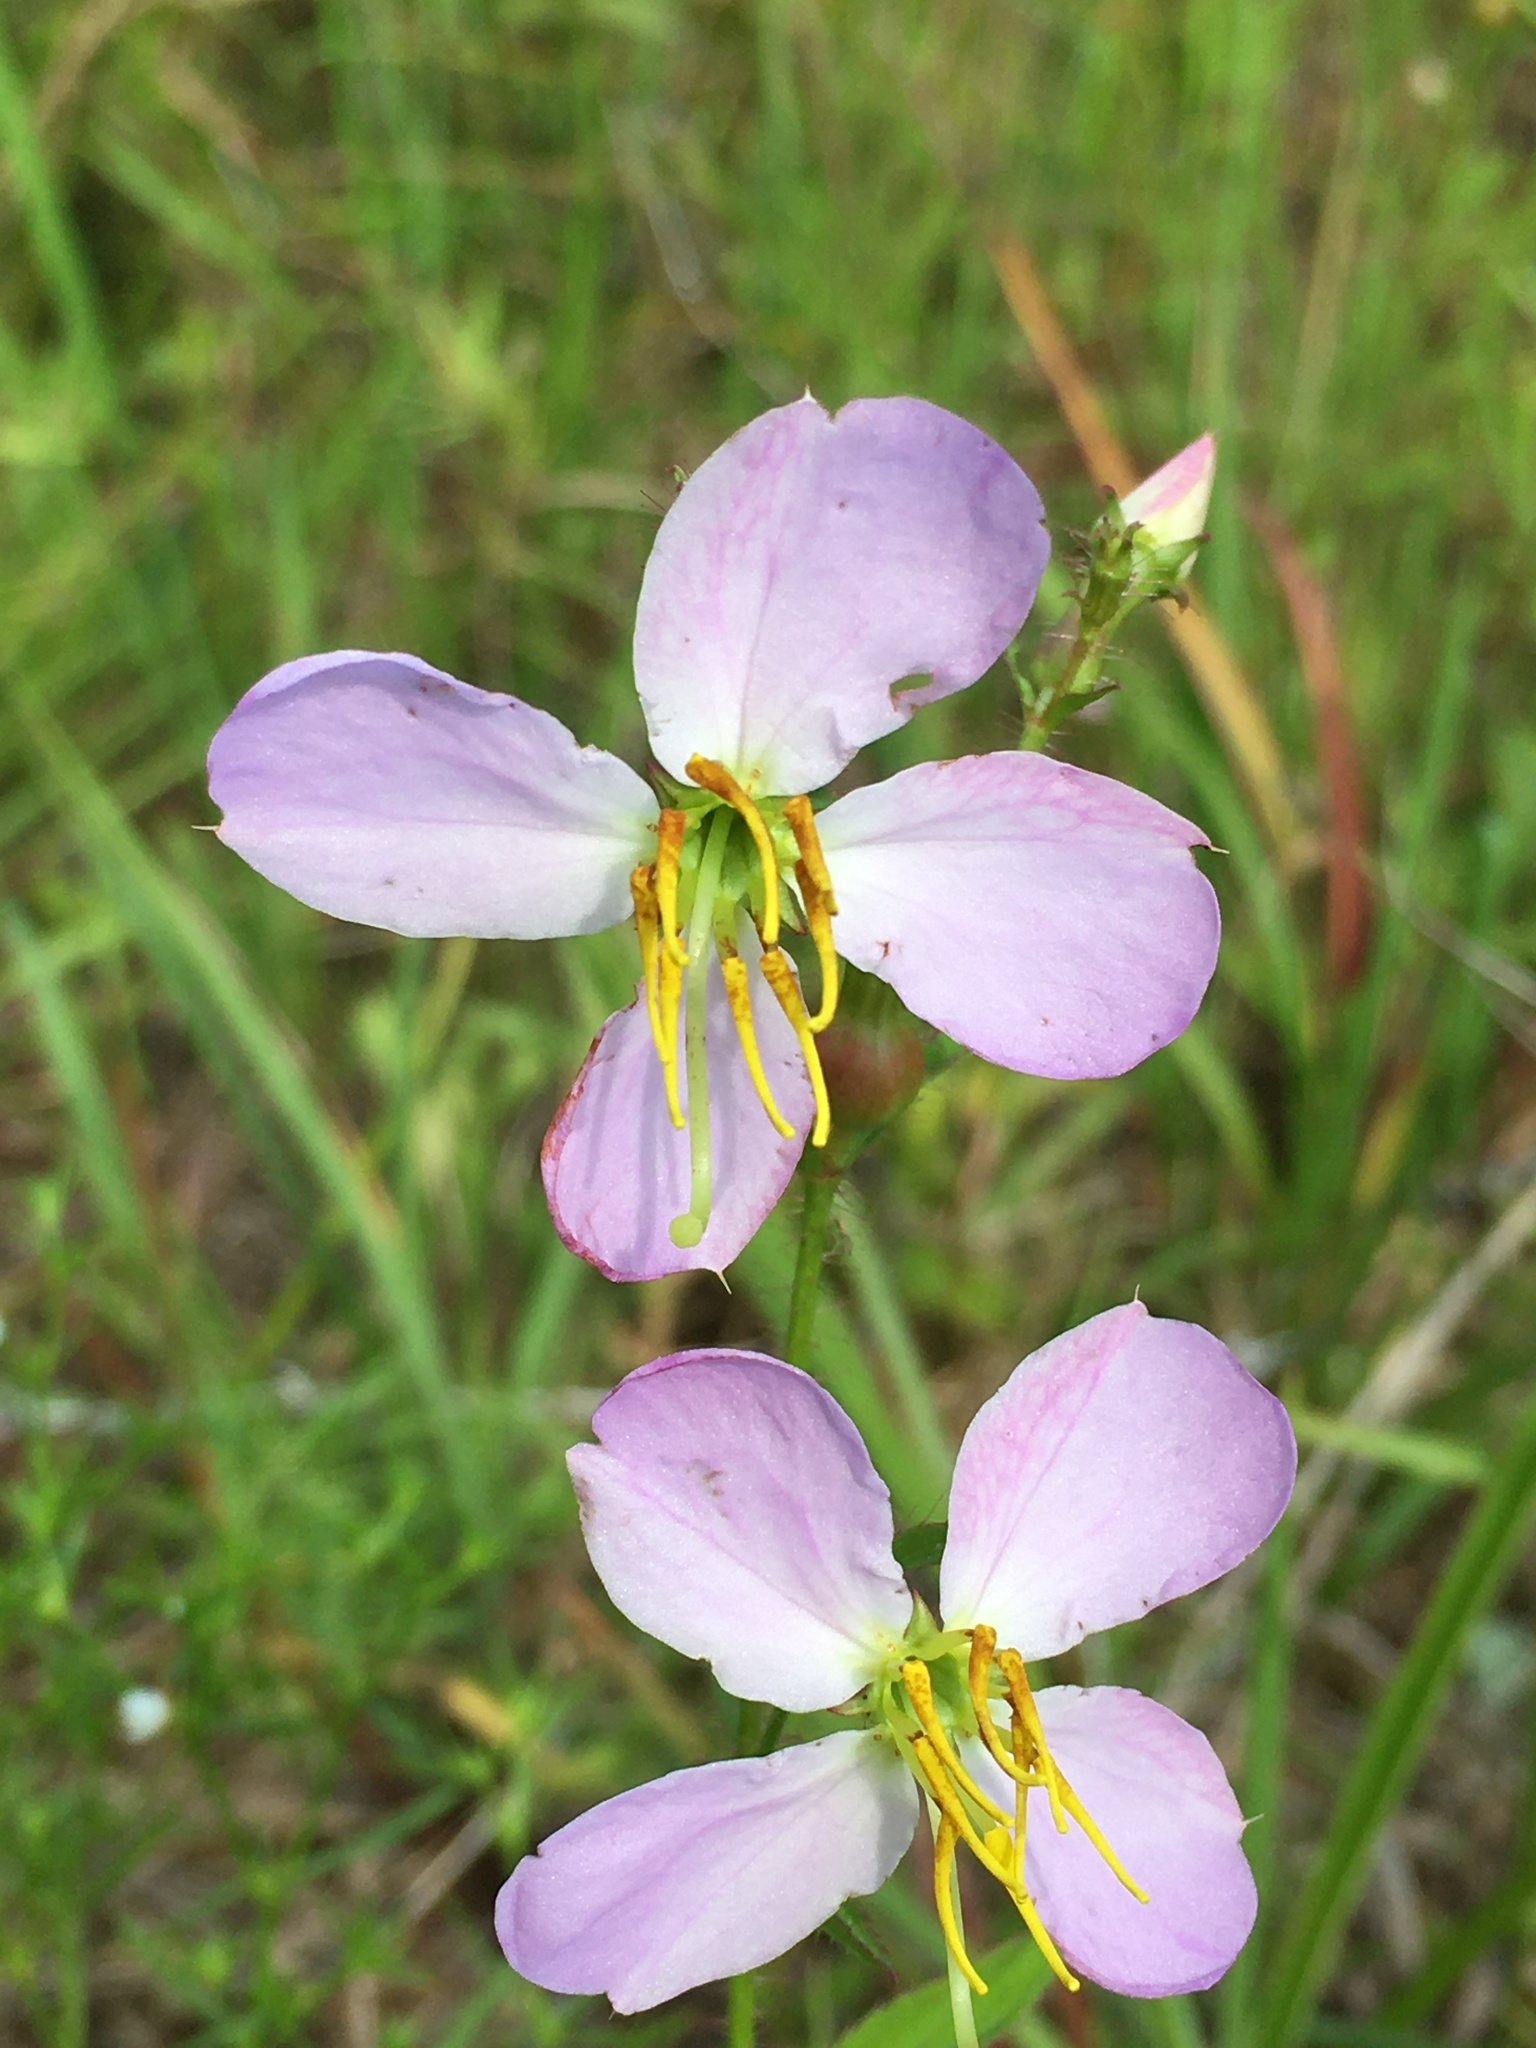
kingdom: Plantae
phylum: Tracheophyta
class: Magnoliopsida
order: Myrtales
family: Melastomataceae
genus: Rhexia
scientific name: Rhexia mariana
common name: Dull meadow-pitcher
